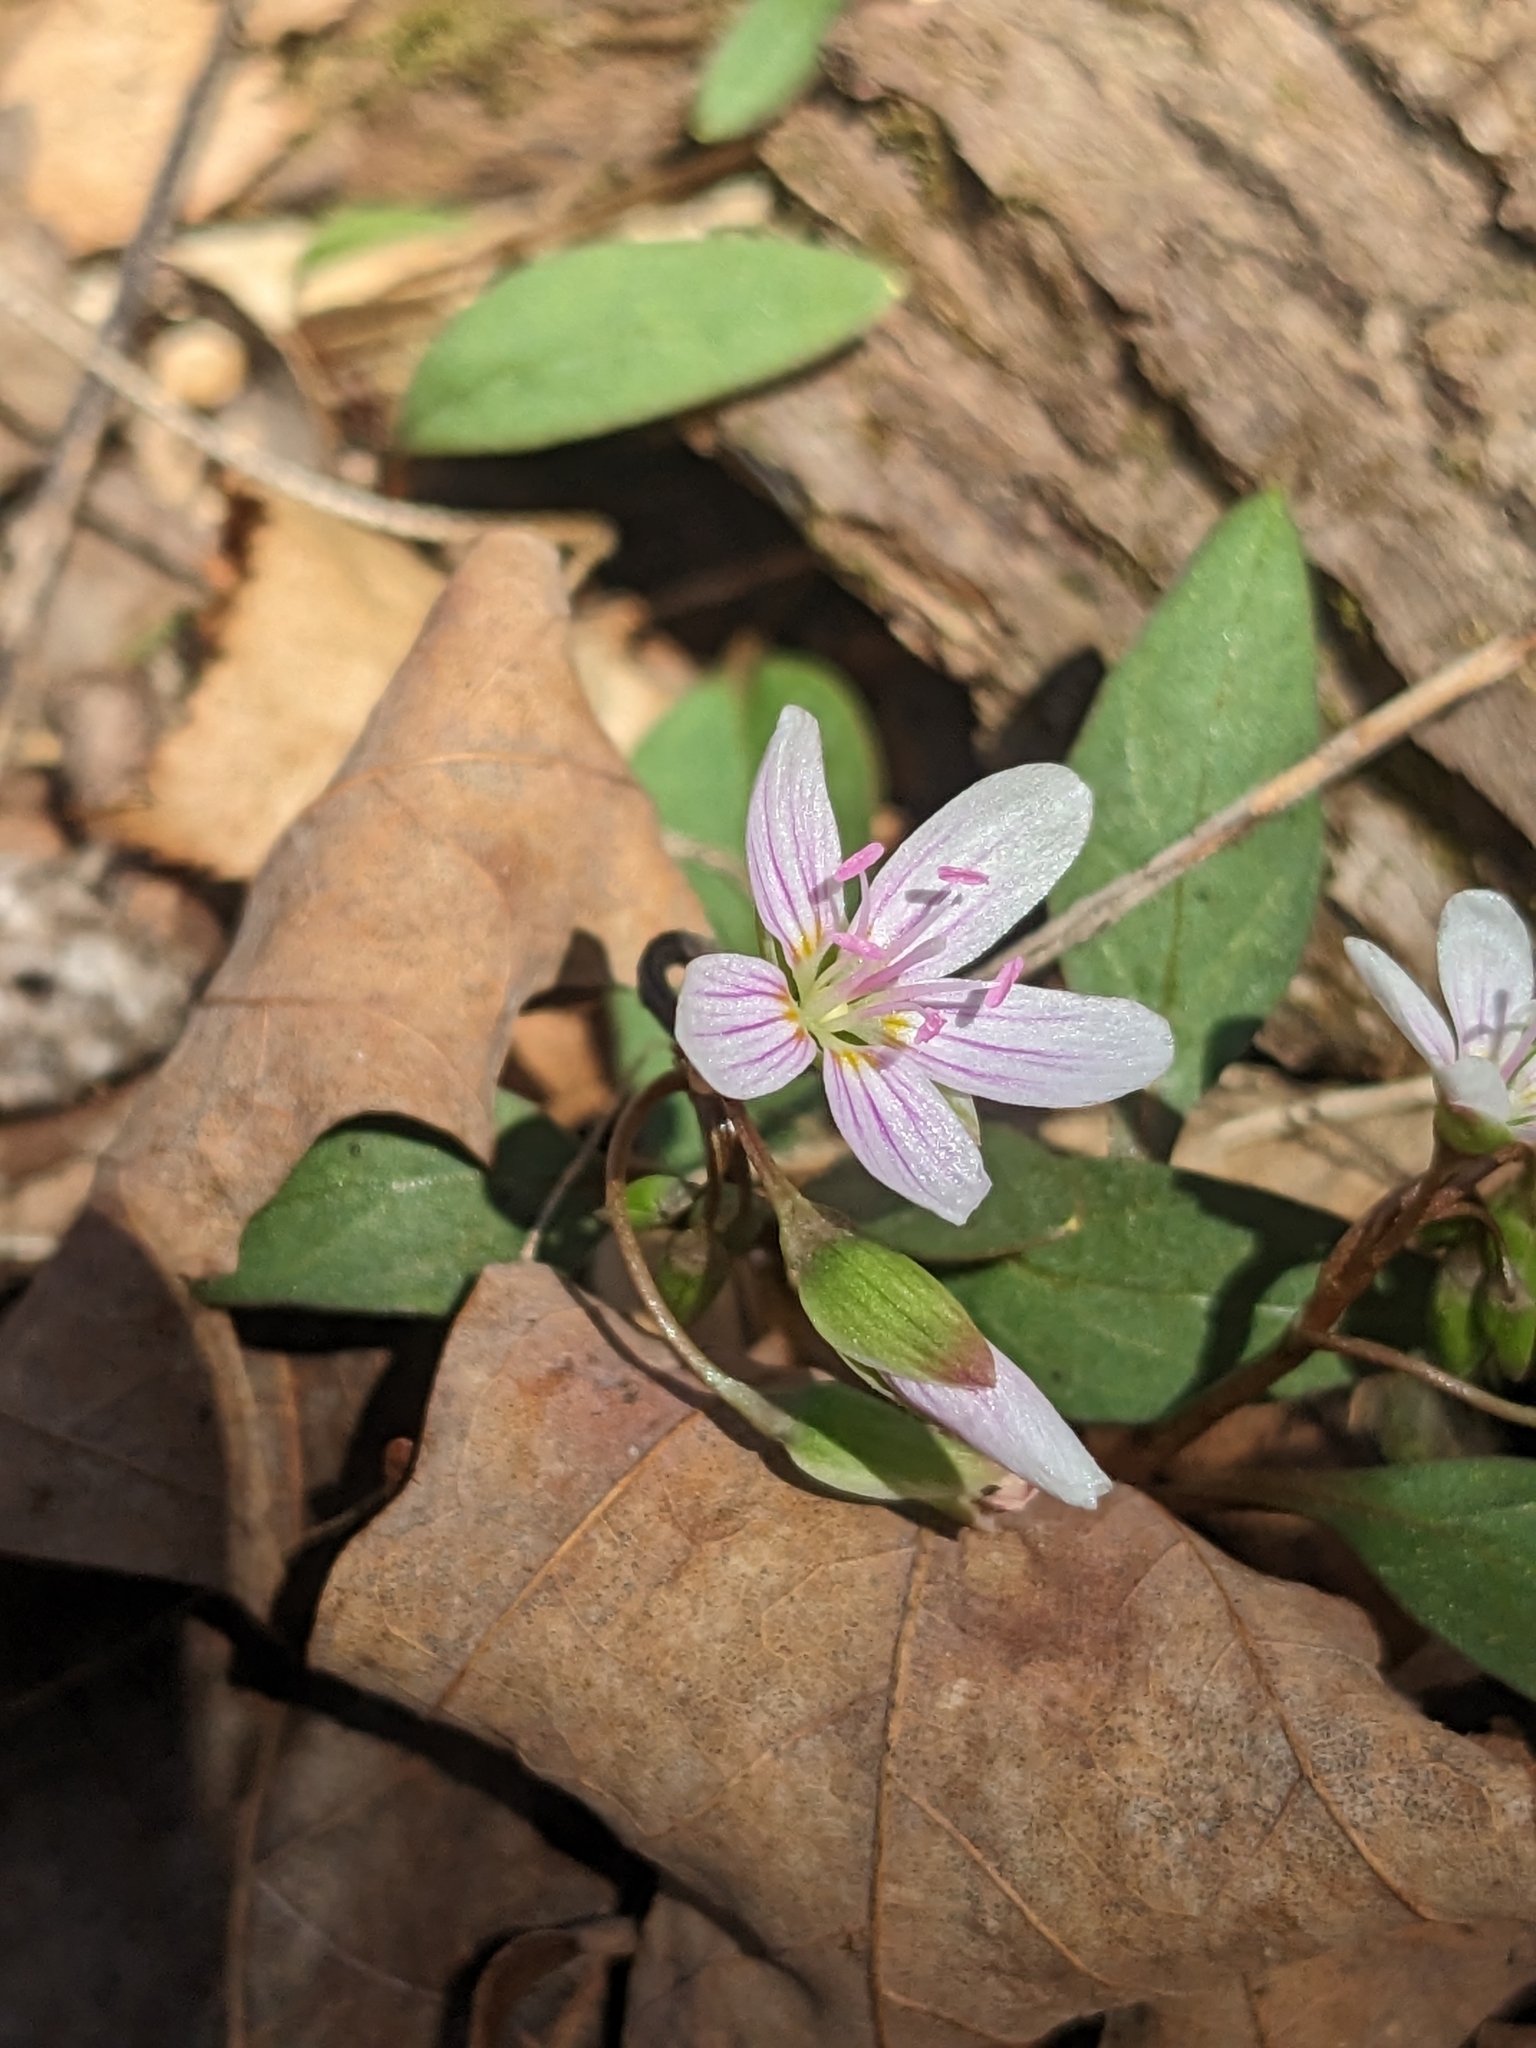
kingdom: Plantae
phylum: Tracheophyta
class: Magnoliopsida
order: Caryophyllales
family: Montiaceae
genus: Claytonia
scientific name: Claytonia caroliniana
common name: Carolina spring beauty
